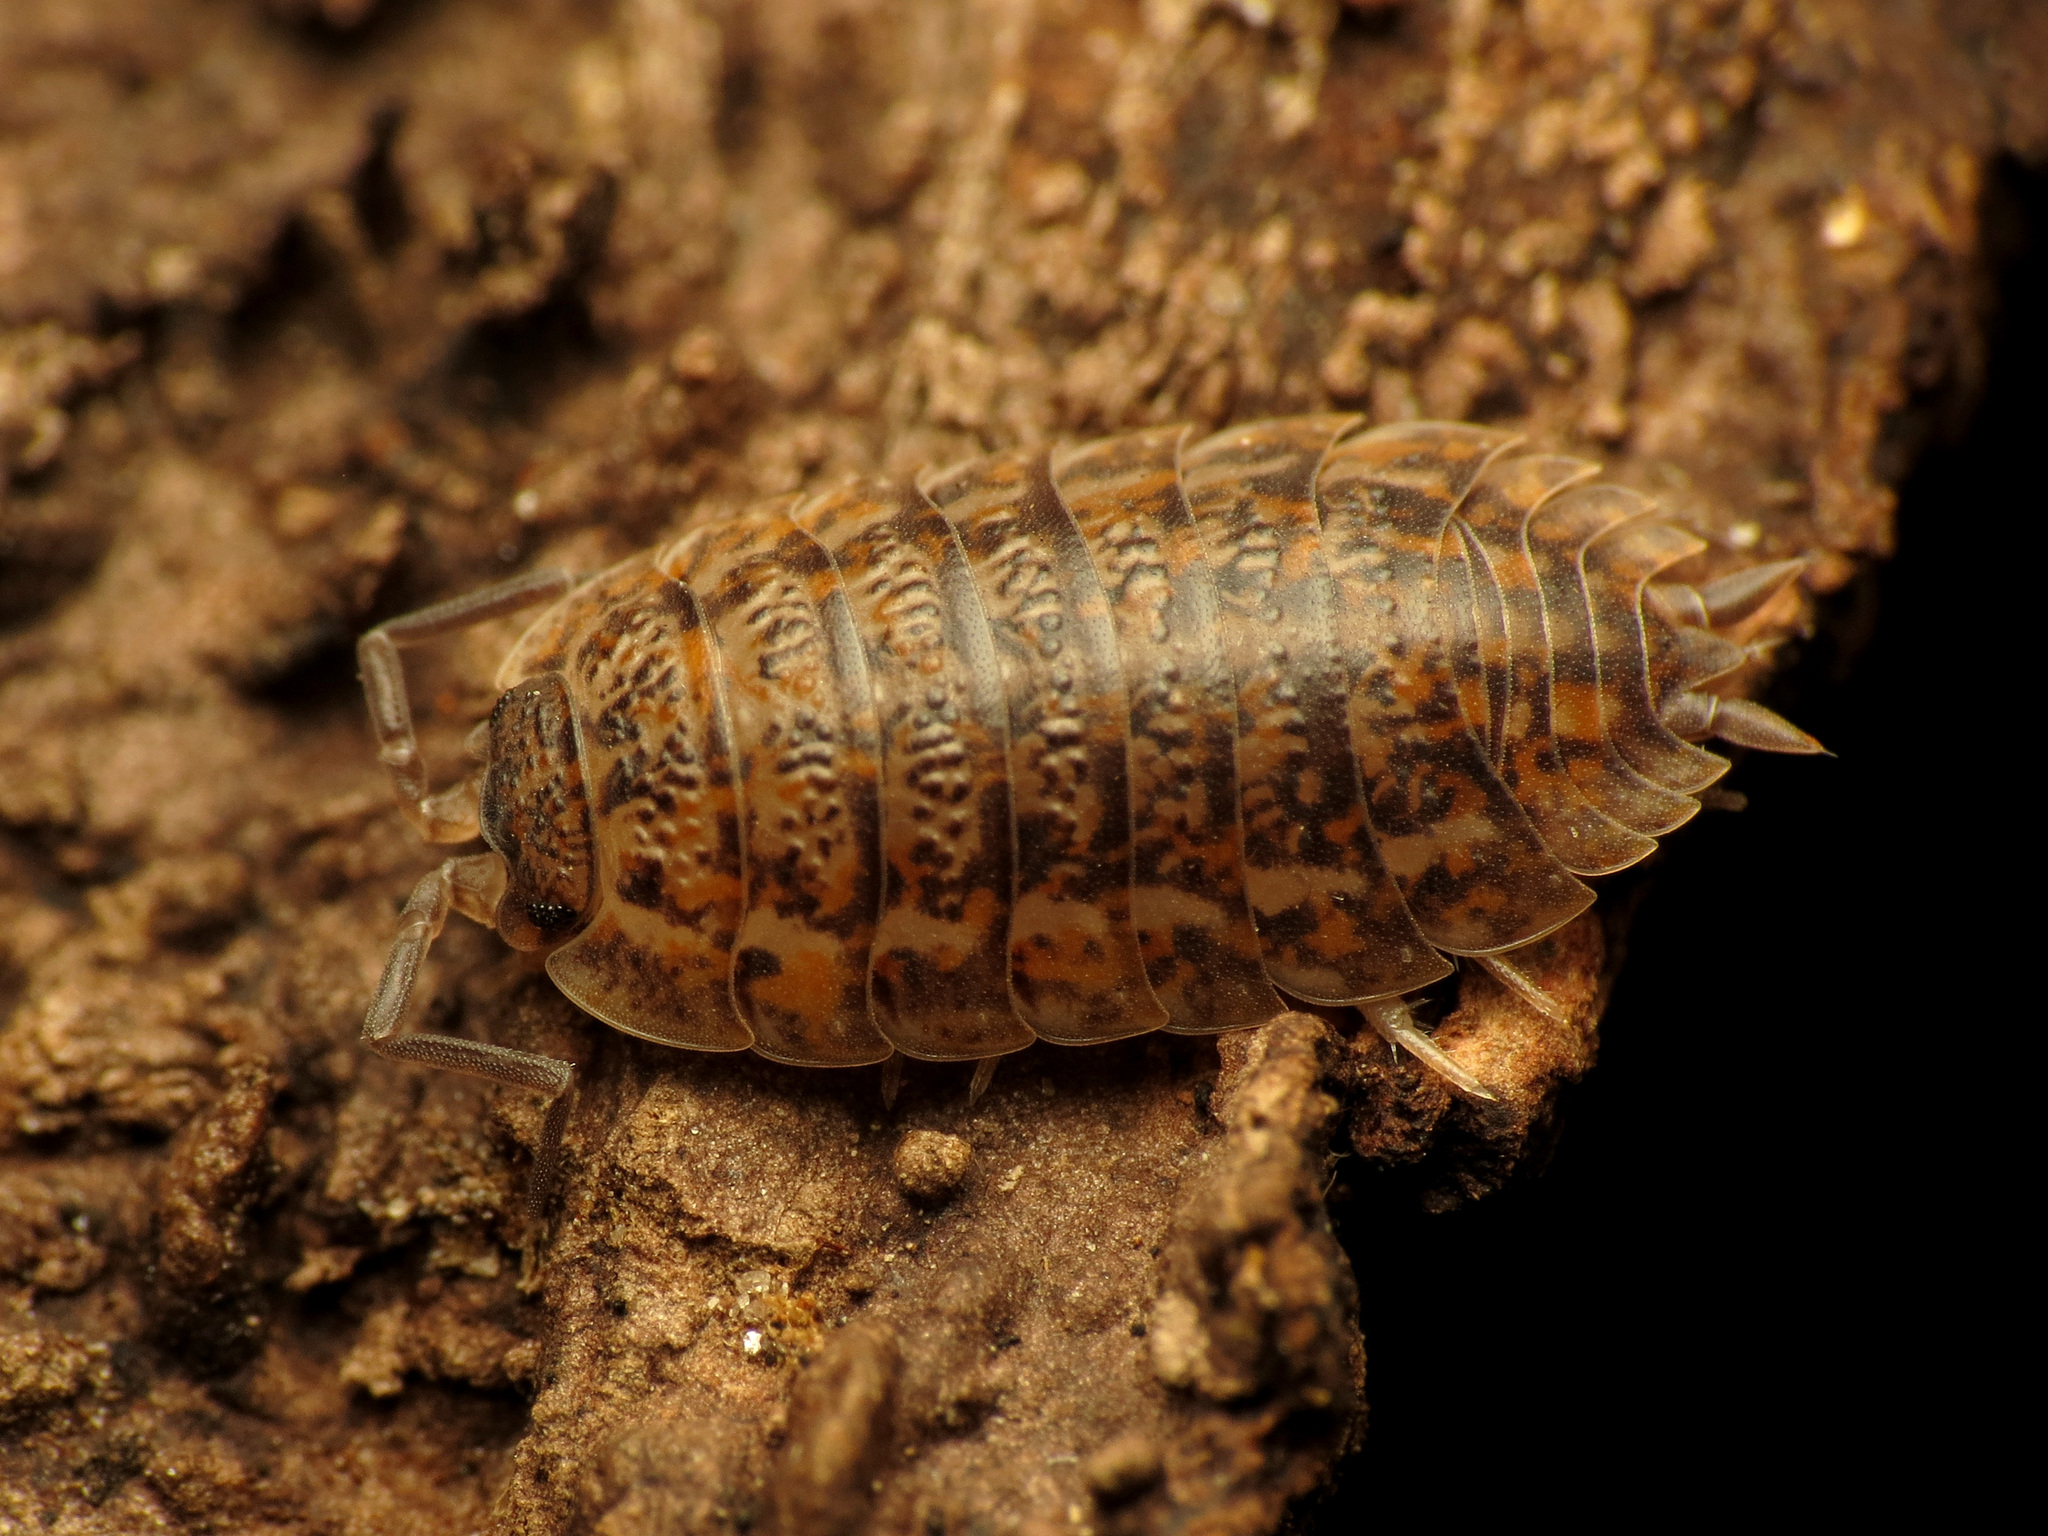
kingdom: Animalia
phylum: Arthropoda
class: Malacostraca
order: Isopoda
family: Trachelipodidae
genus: Trachelipus
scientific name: Trachelipus rathkii
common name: Isopod
